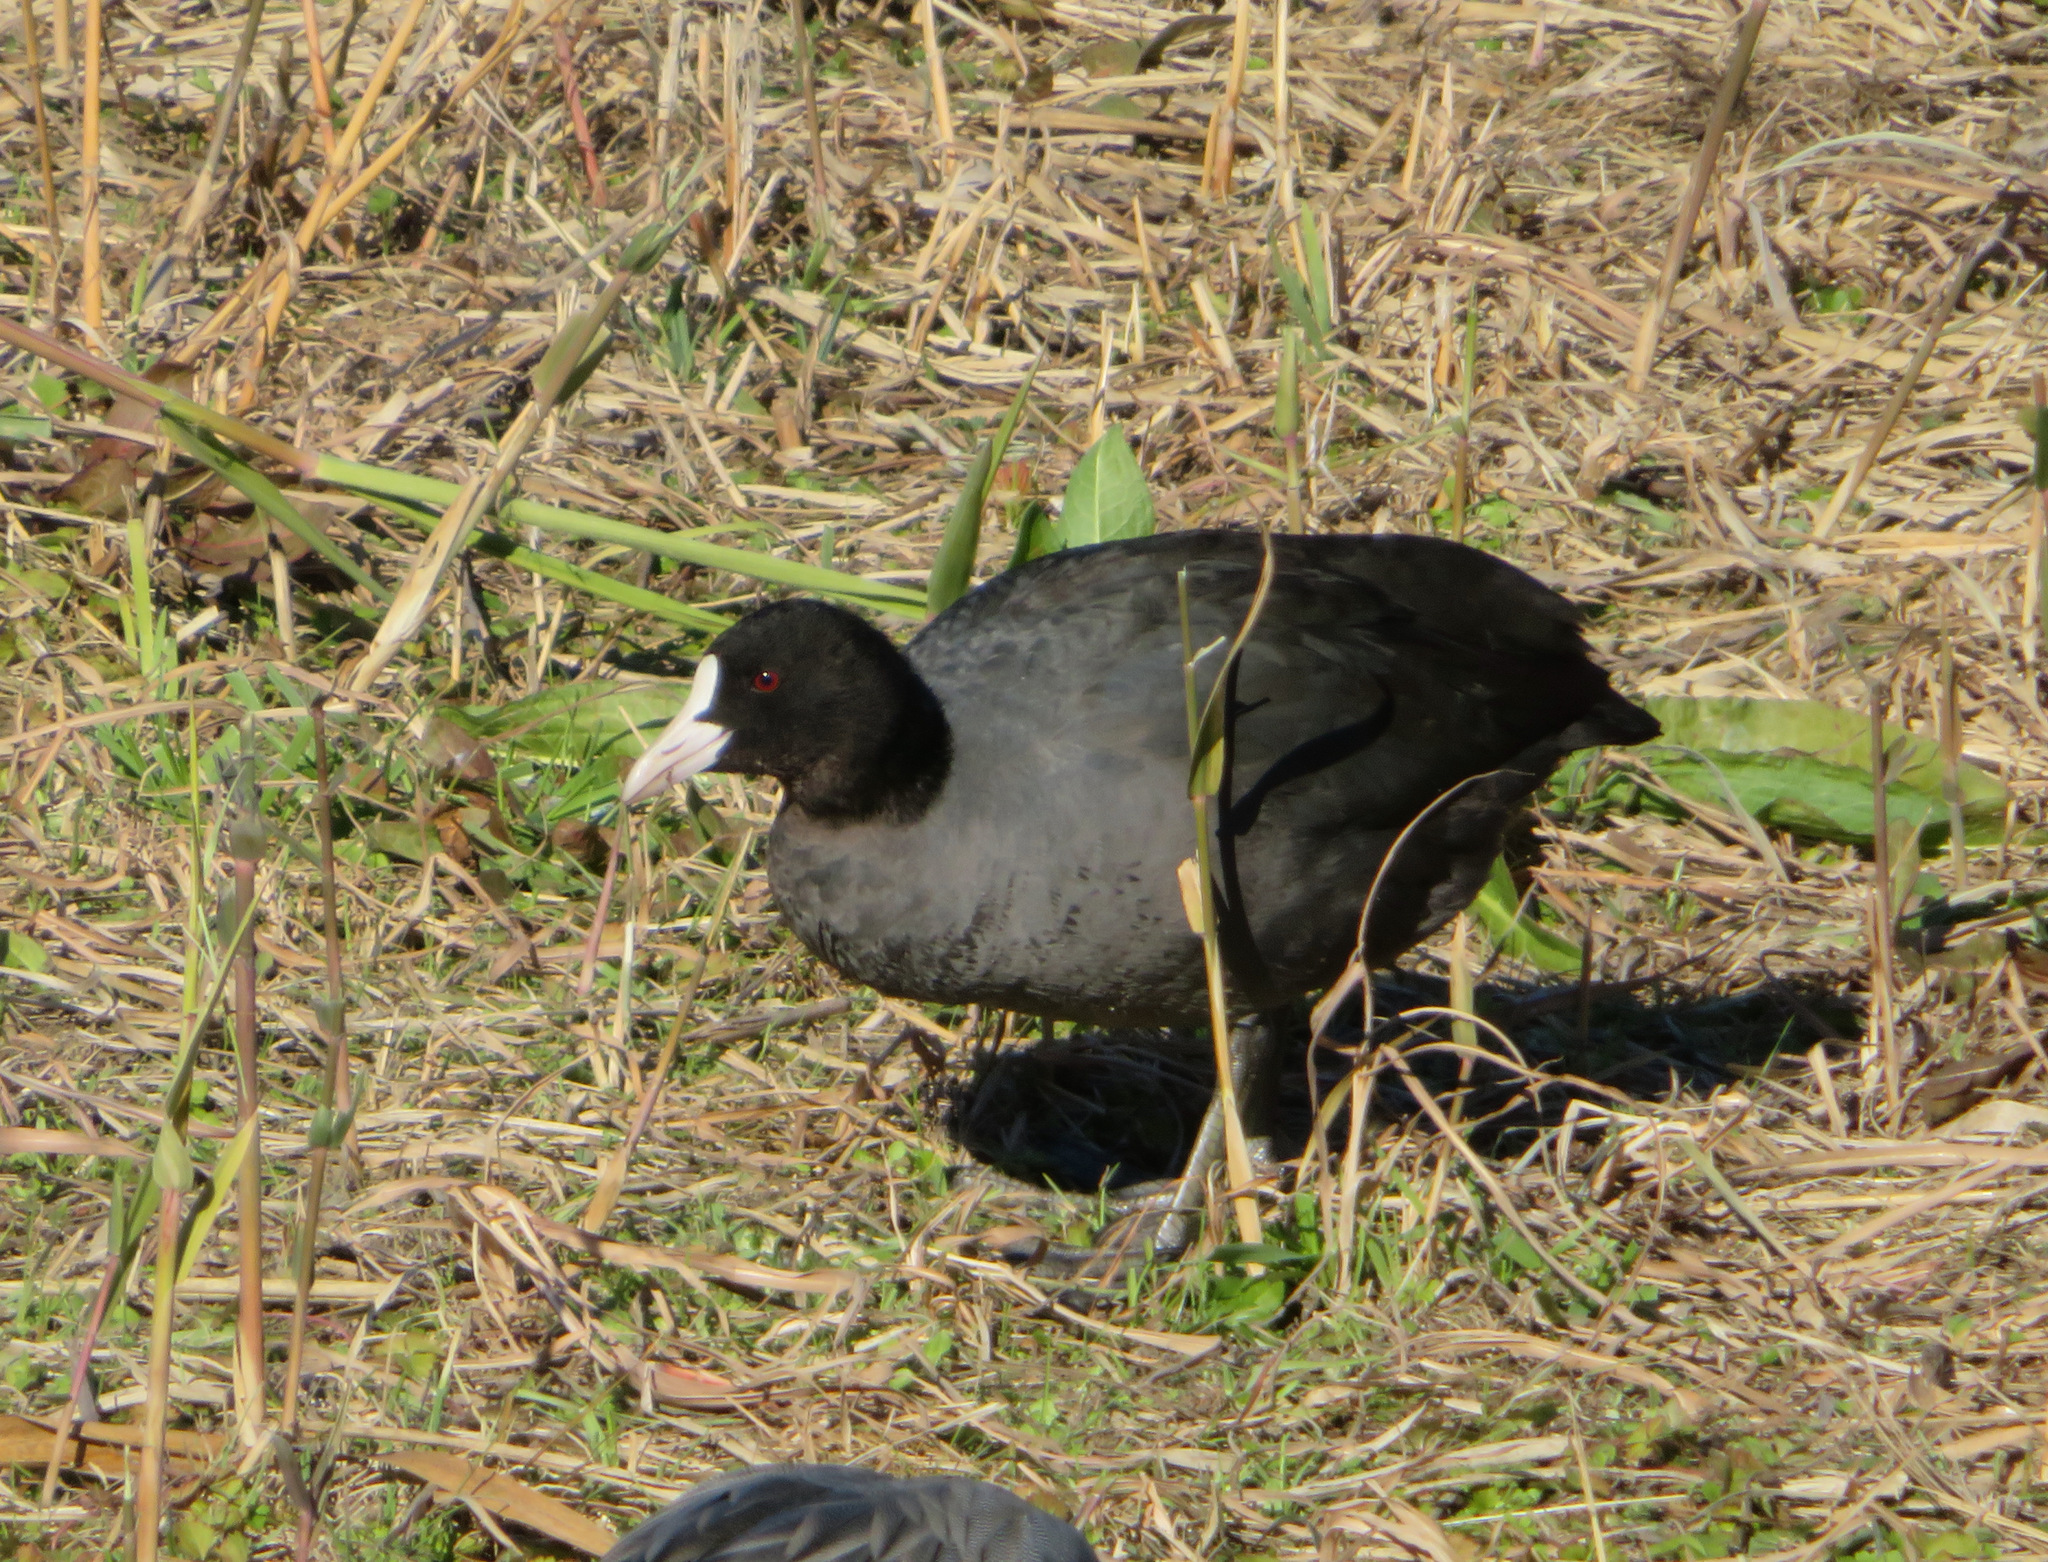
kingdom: Animalia
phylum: Chordata
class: Aves
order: Gruiformes
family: Rallidae
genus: Fulica
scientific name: Fulica atra
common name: Eurasian coot
